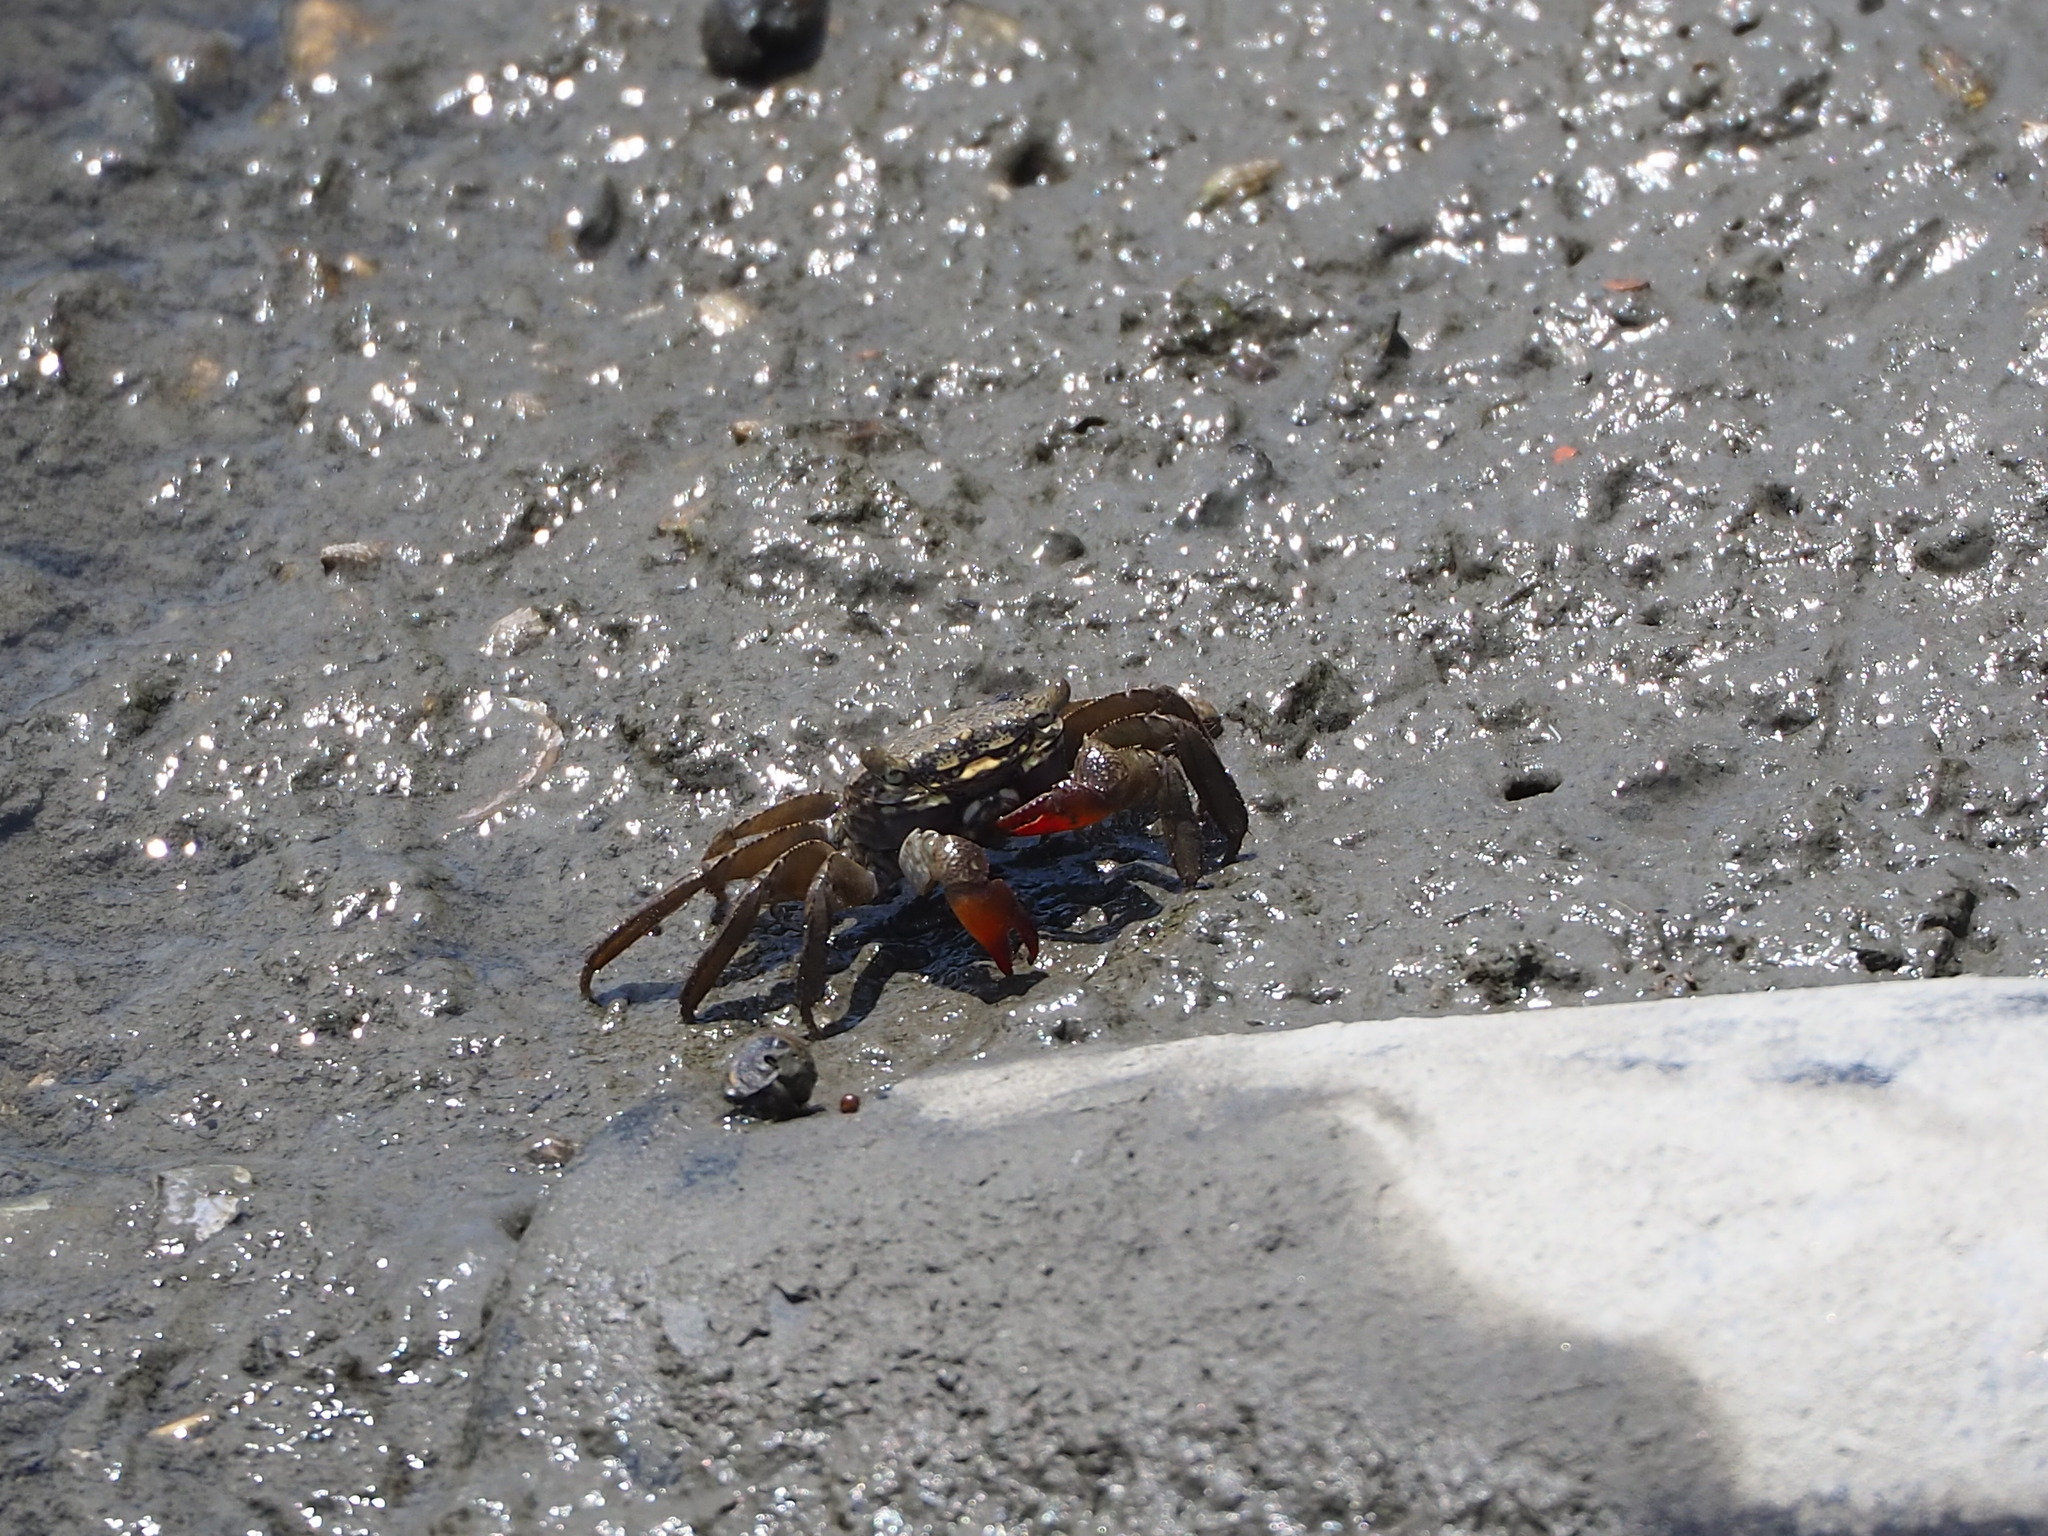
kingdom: Animalia
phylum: Arthropoda
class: Malacostraca
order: Decapoda
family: Sesarmidae
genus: Parasesarma
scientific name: Parasesarma affine
